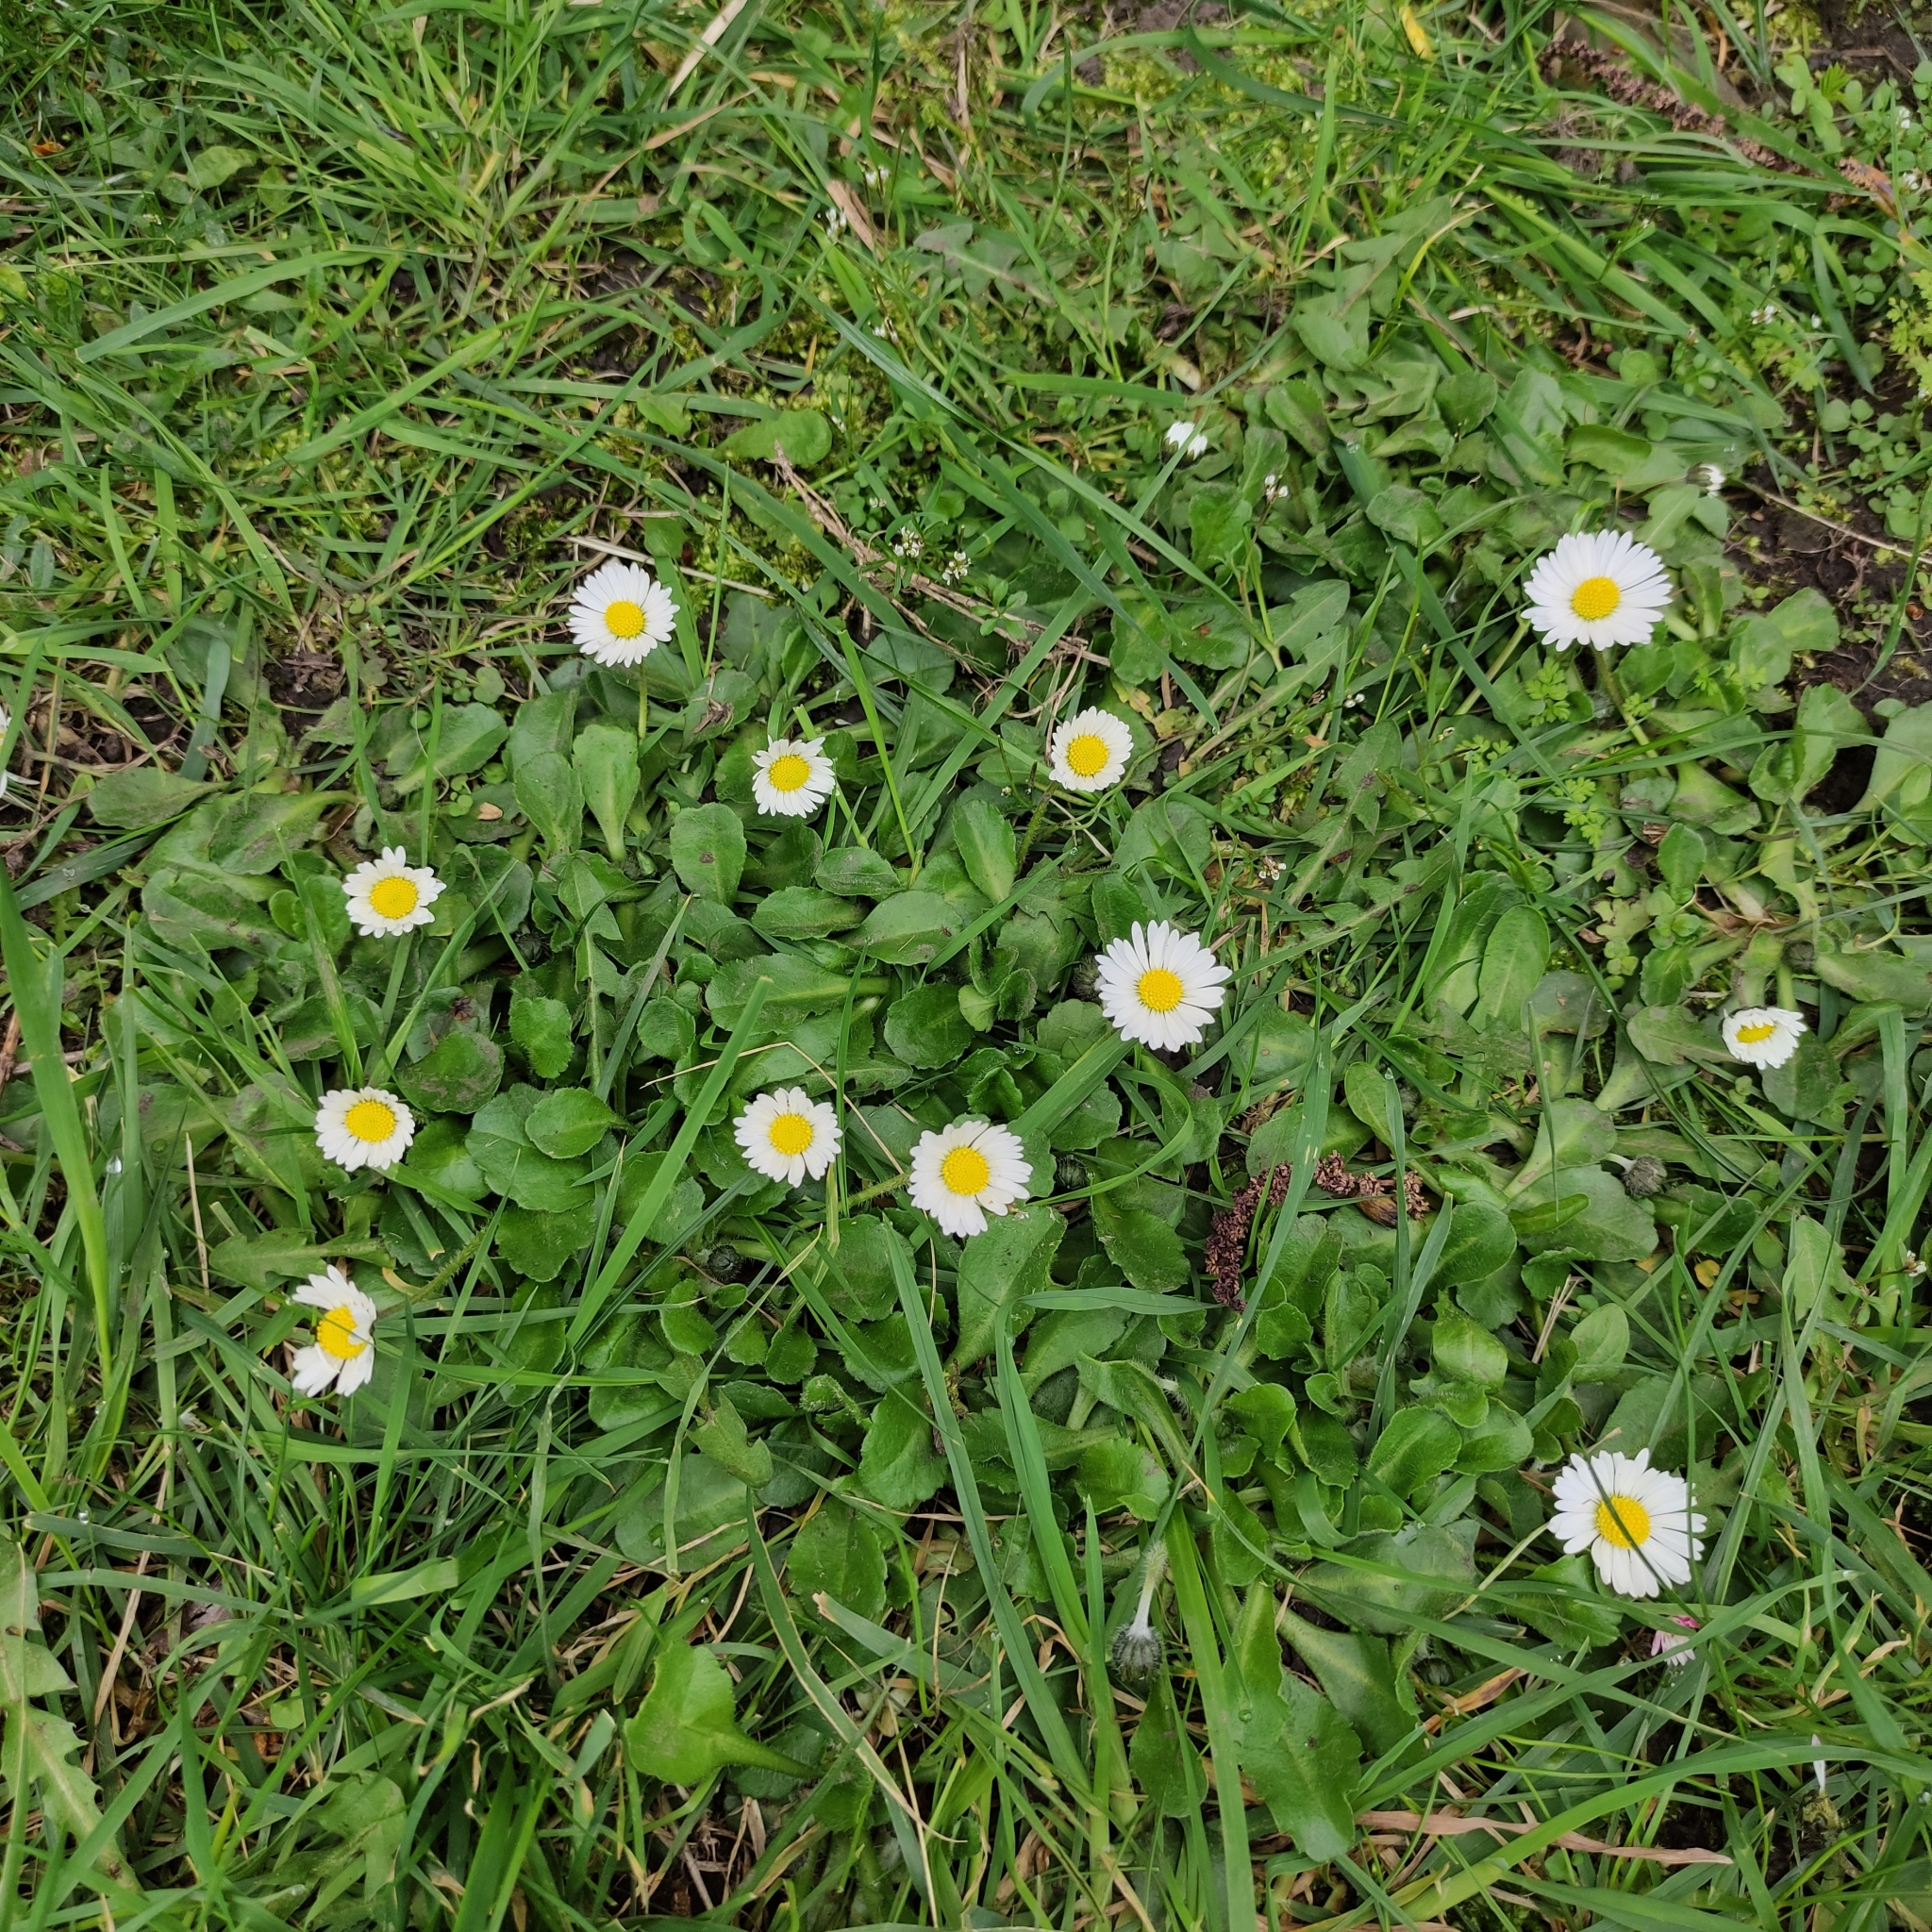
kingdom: Plantae
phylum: Tracheophyta
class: Magnoliopsida
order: Asterales
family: Asteraceae
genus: Bellis
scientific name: Bellis perennis
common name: Lawndaisy
